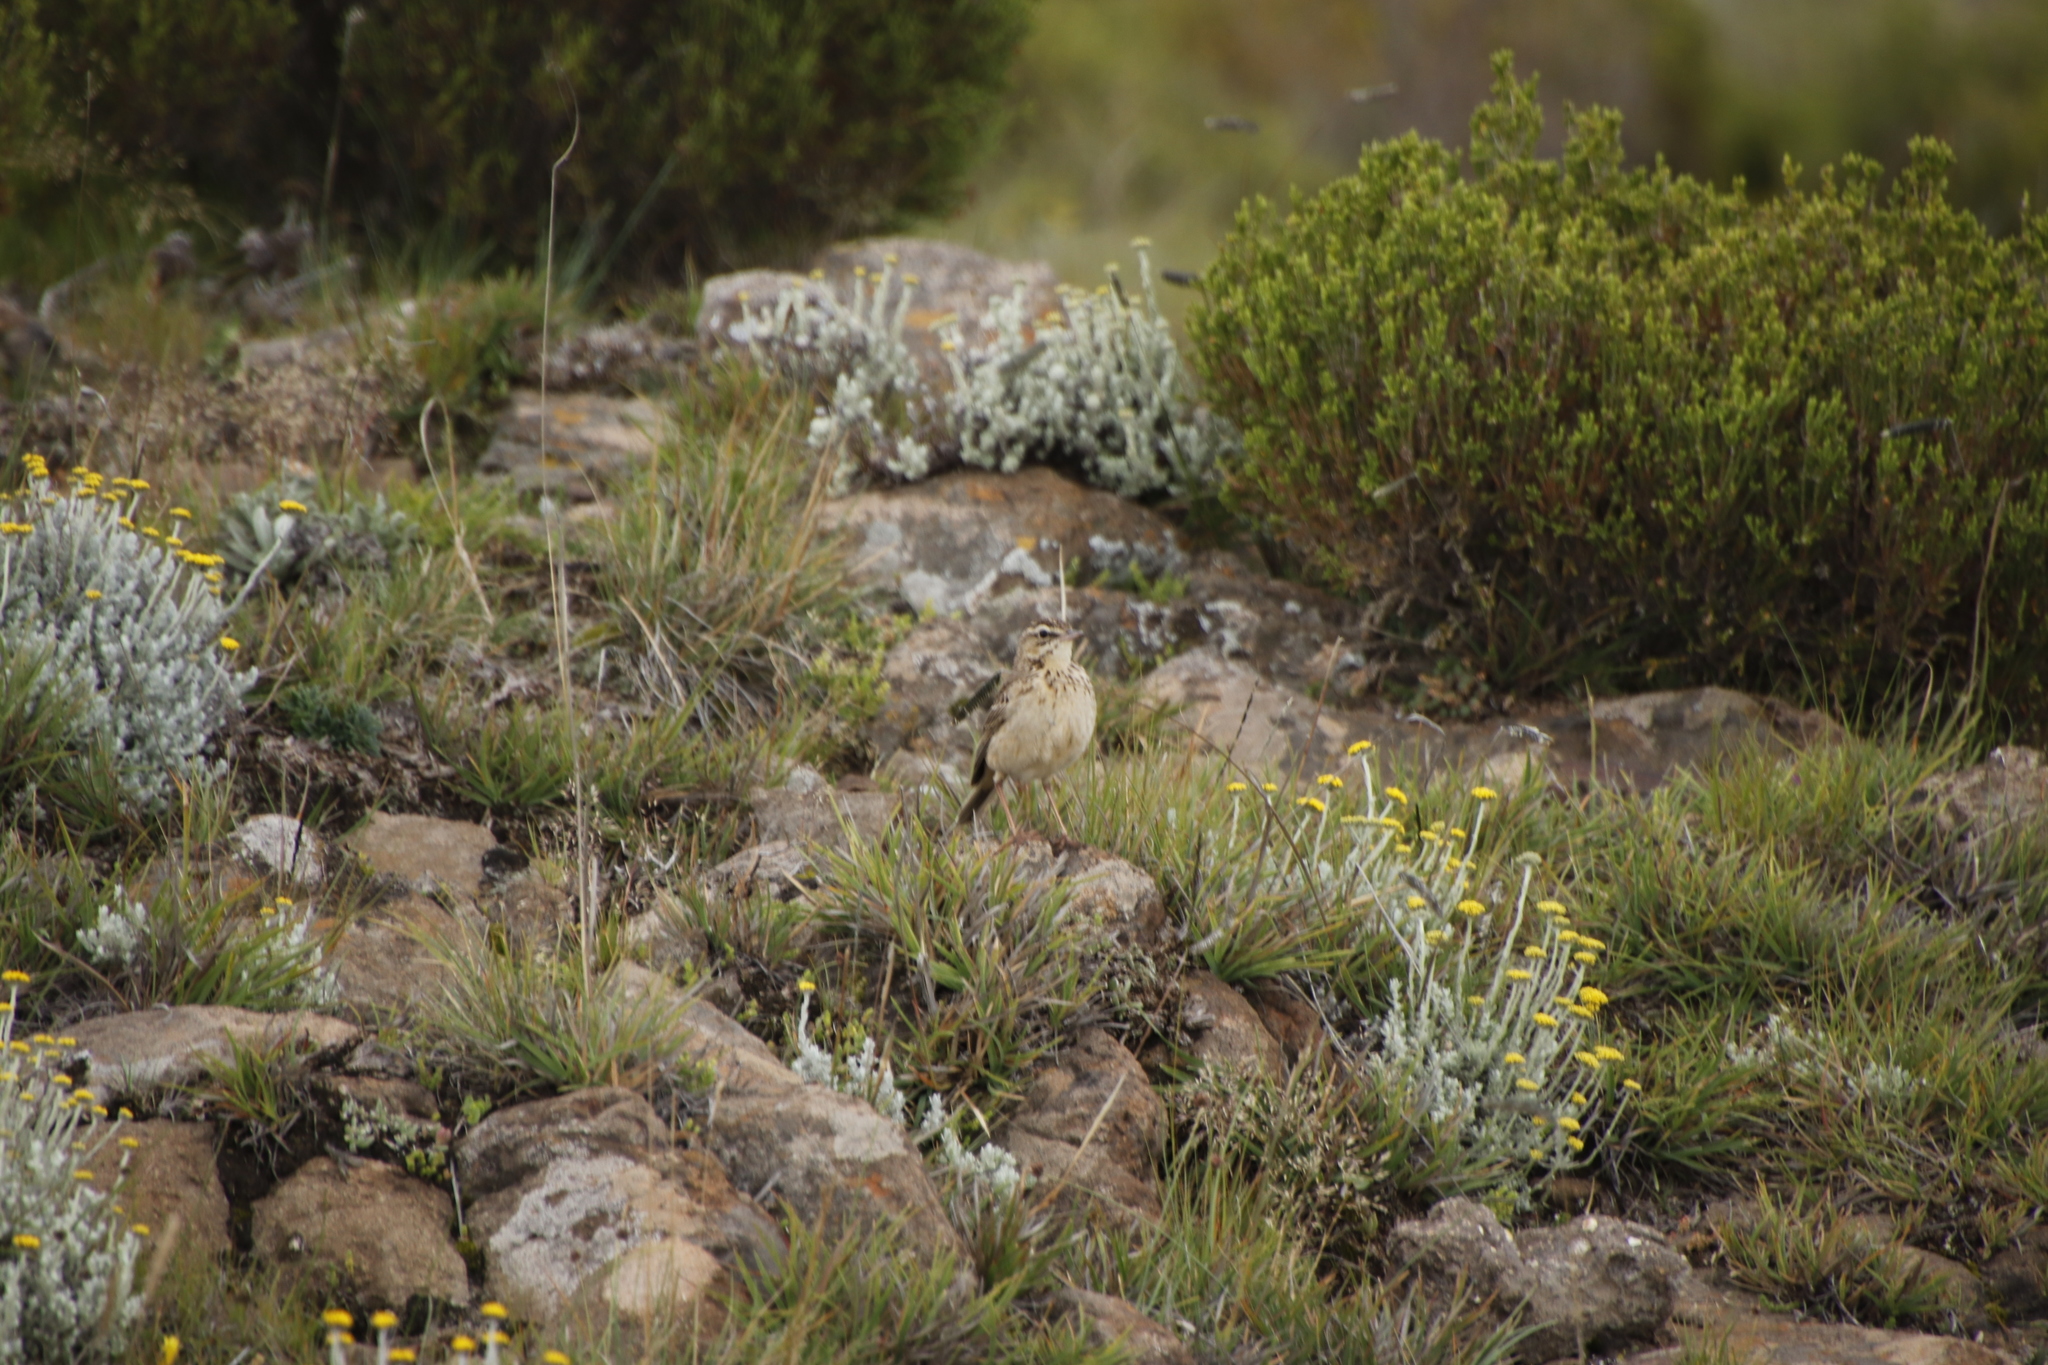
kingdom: Animalia
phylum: Chordata
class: Aves
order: Passeriformes
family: Motacillidae
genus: Anthus
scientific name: Anthus hoeschi
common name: Mountain pipit
